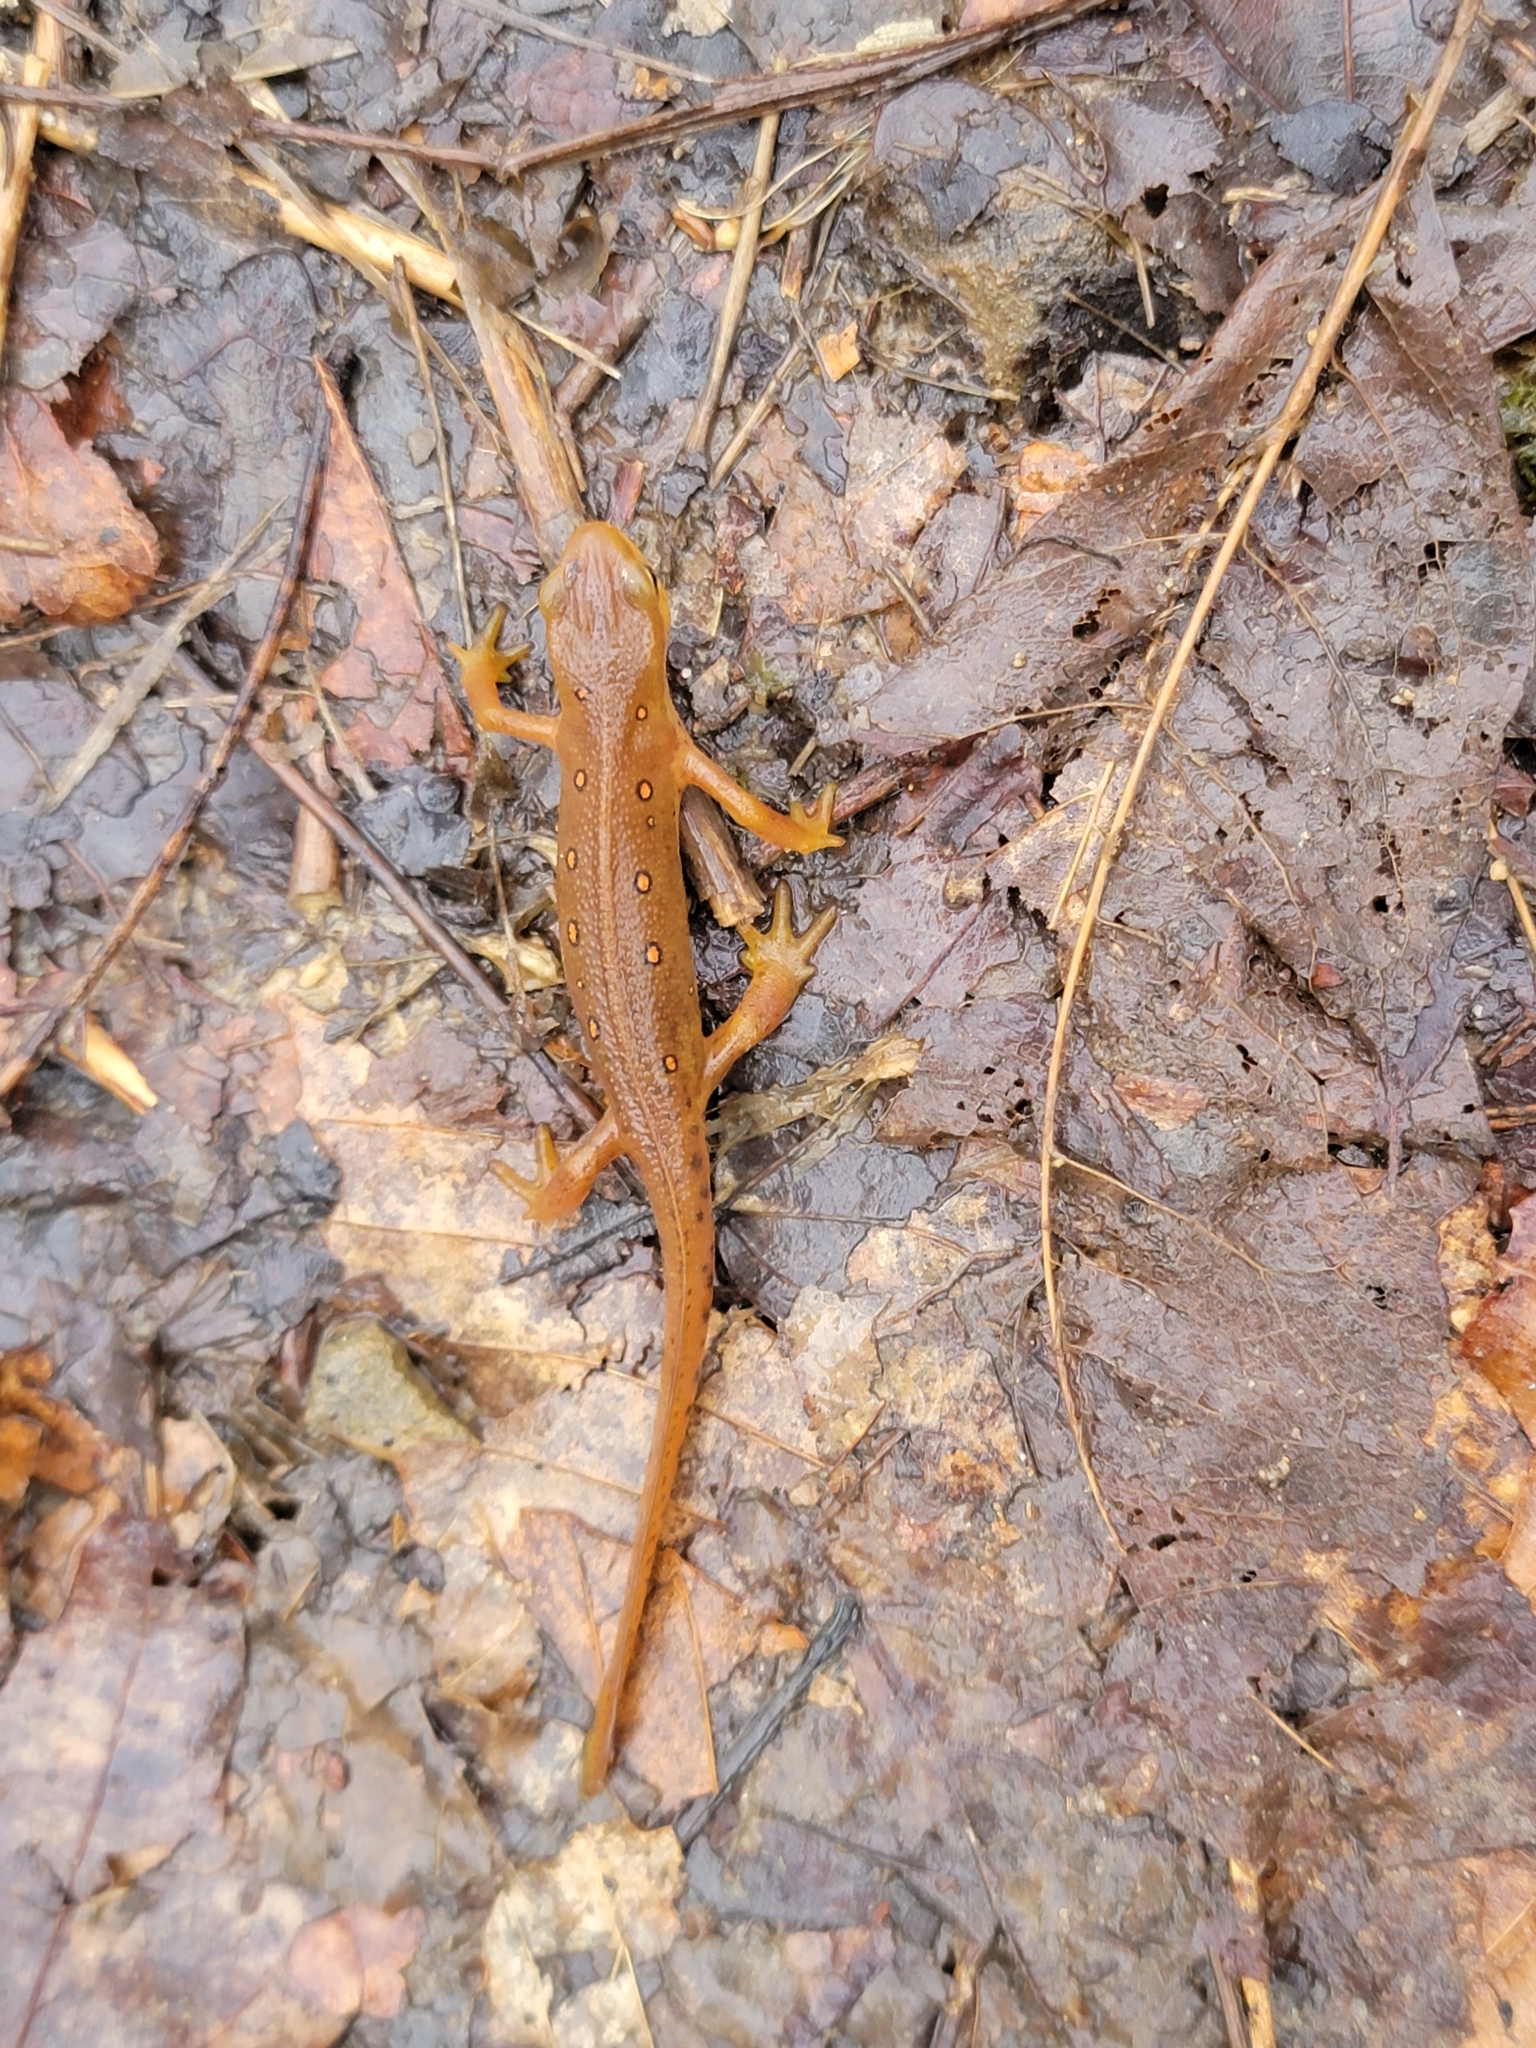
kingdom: Animalia
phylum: Chordata
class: Amphibia
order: Caudata
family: Salamandridae
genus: Notophthalmus
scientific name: Notophthalmus viridescens
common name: Eastern newt
